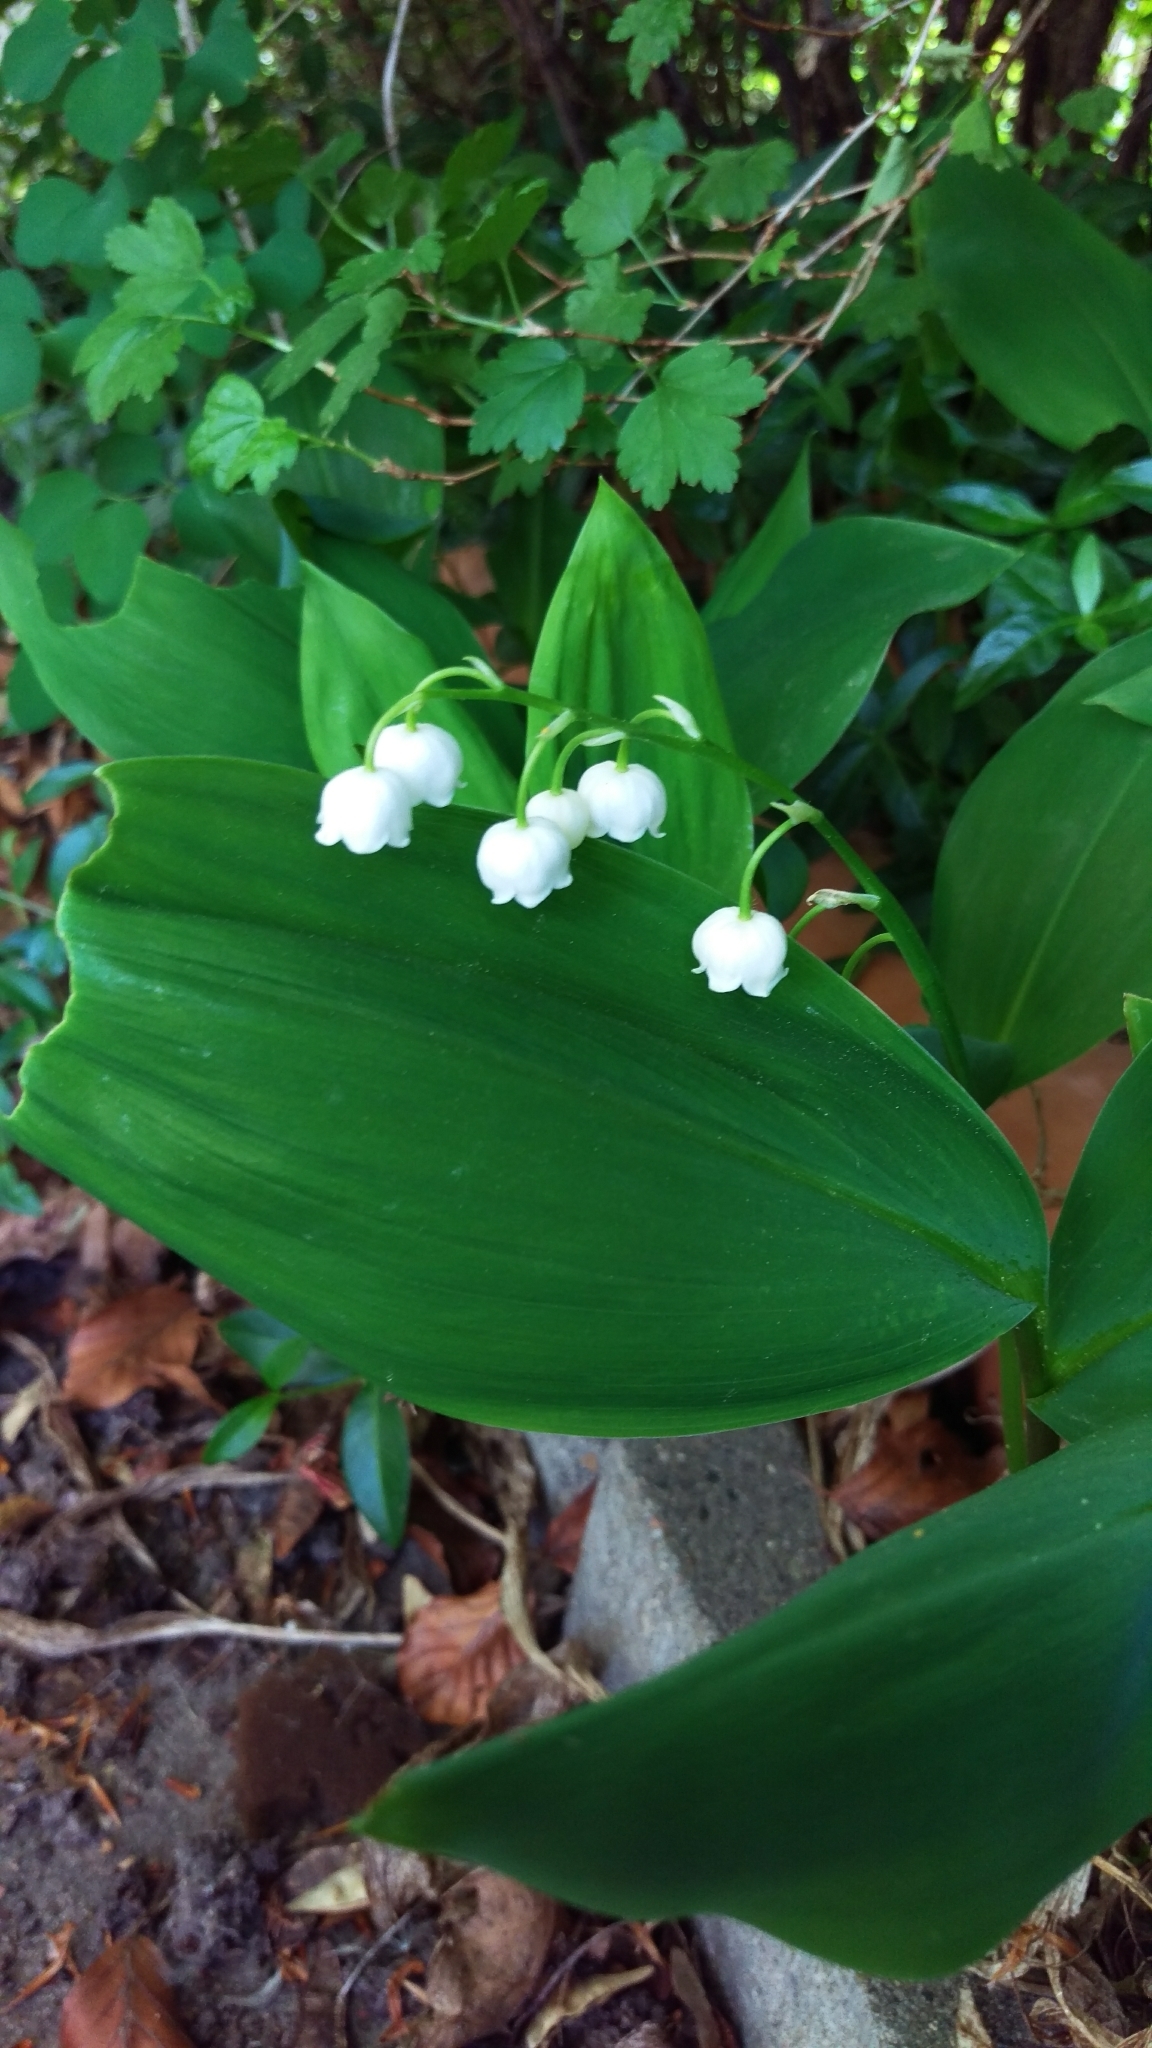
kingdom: Plantae
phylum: Tracheophyta
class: Liliopsida
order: Asparagales
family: Asparagaceae
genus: Convallaria
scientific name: Convallaria majalis
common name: Lily-of-the-valley
